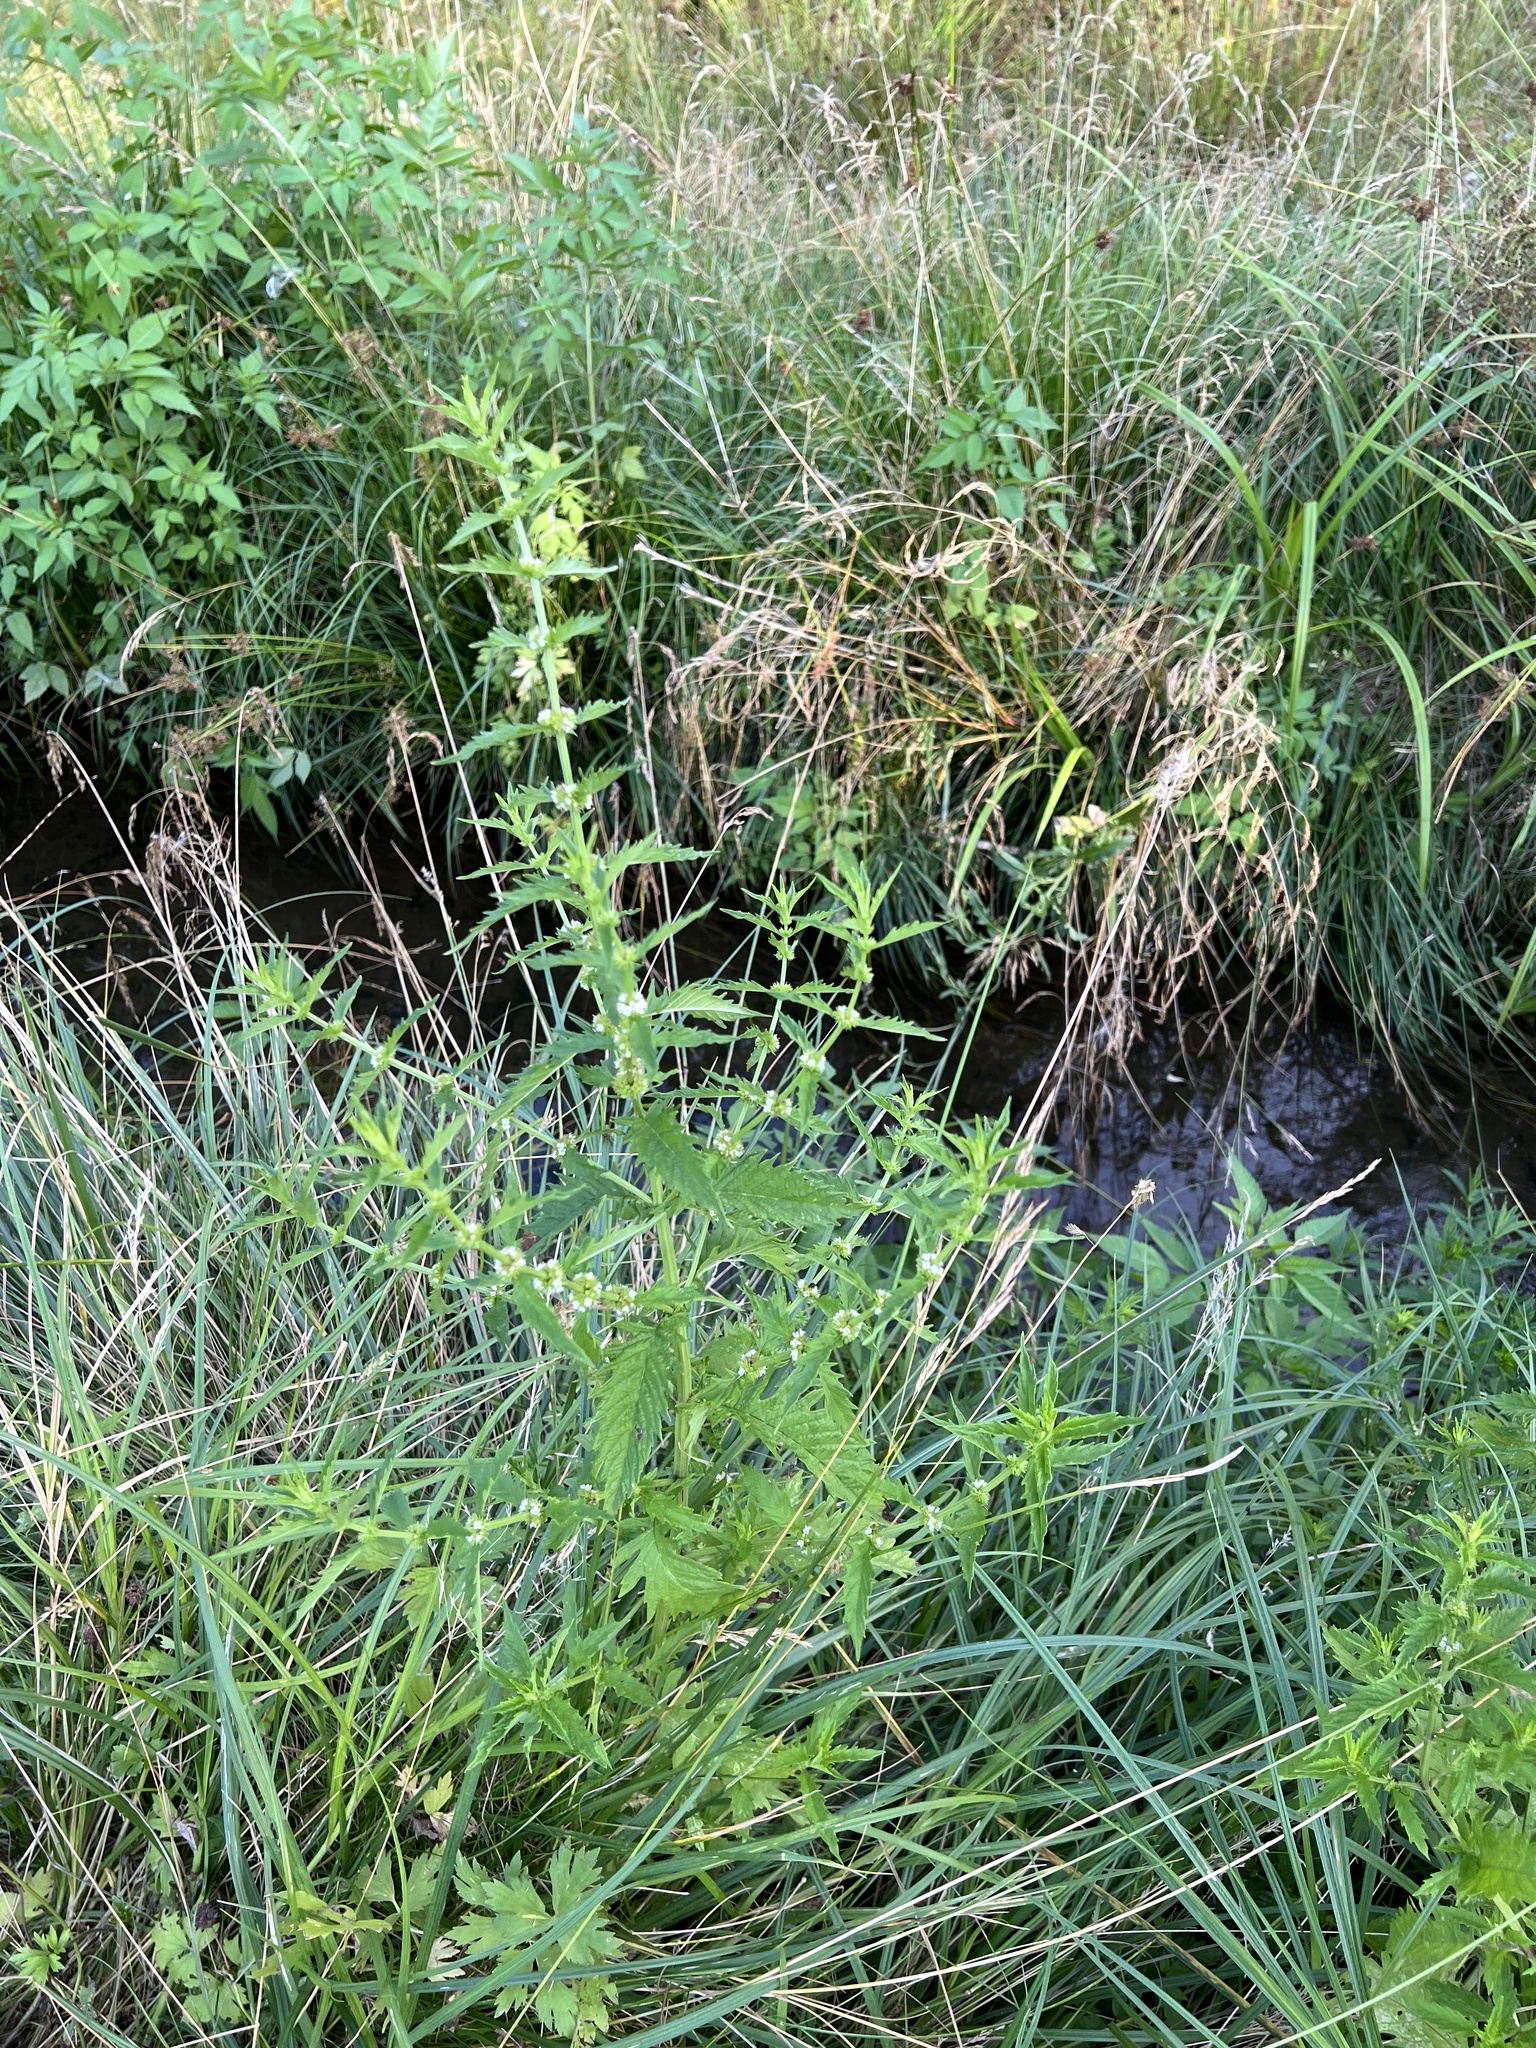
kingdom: Plantae
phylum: Tracheophyta
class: Magnoliopsida
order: Lamiales
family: Lamiaceae
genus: Lycopus
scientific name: Lycopus europaeus
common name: European bugleweed
